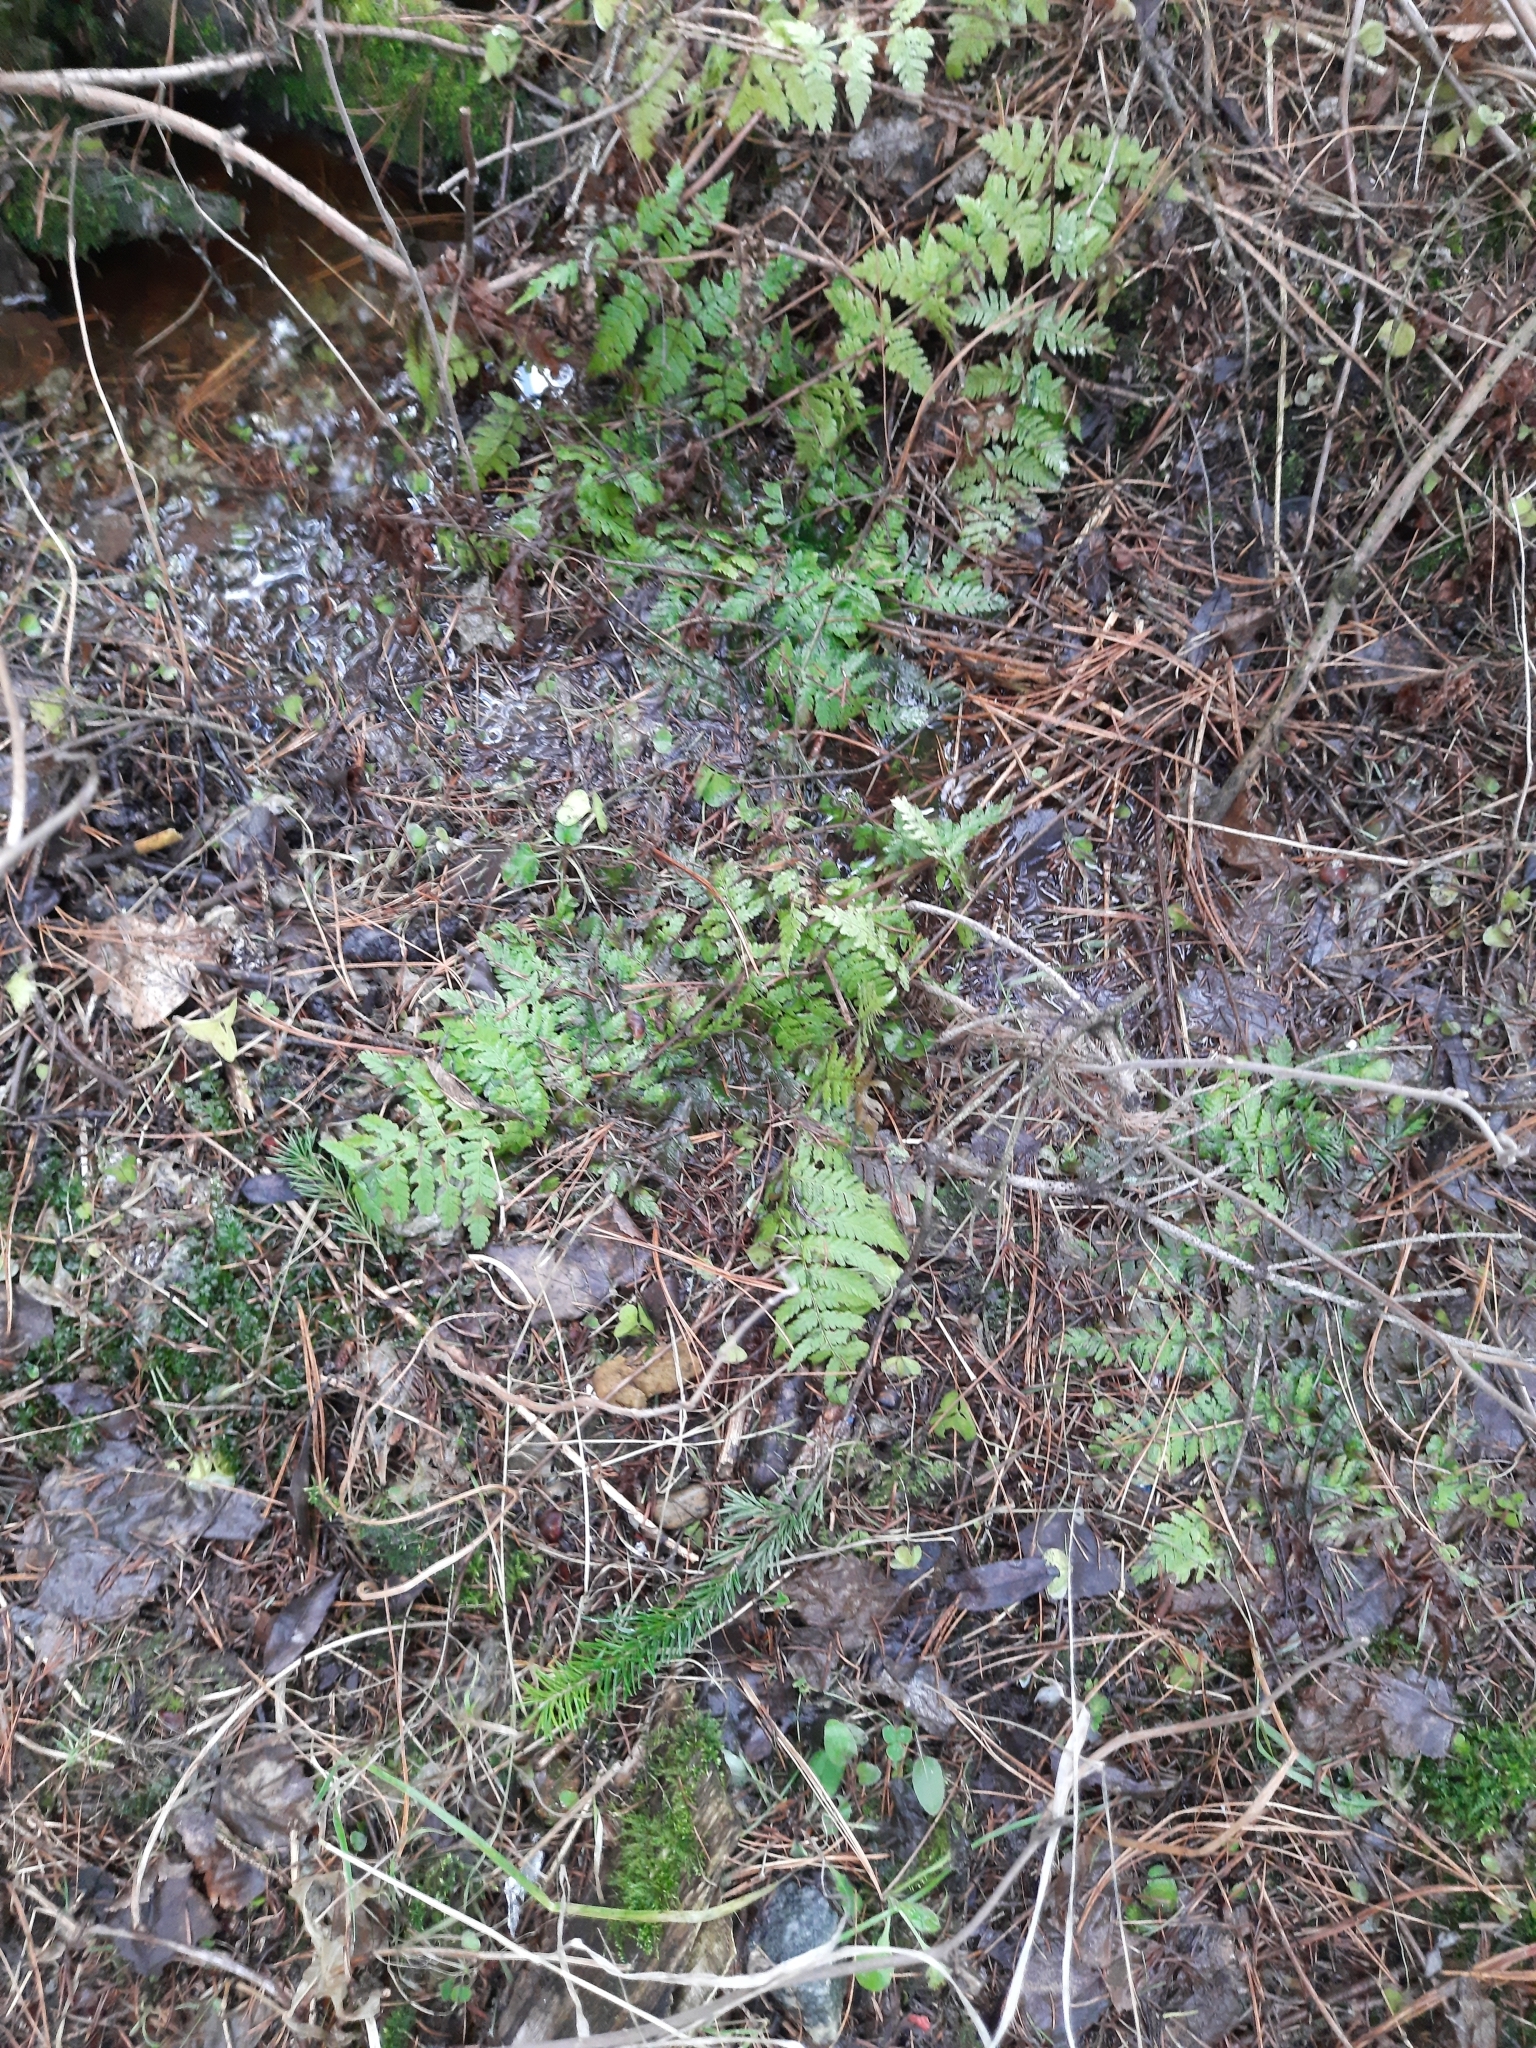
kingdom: Plantae
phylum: Tracheophyta
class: Polypodiopsida
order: Polypodiales
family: Dryopteridaceae
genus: Dryopteris
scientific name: Dryopteris carthusiana
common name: Narrow buckler-fern
